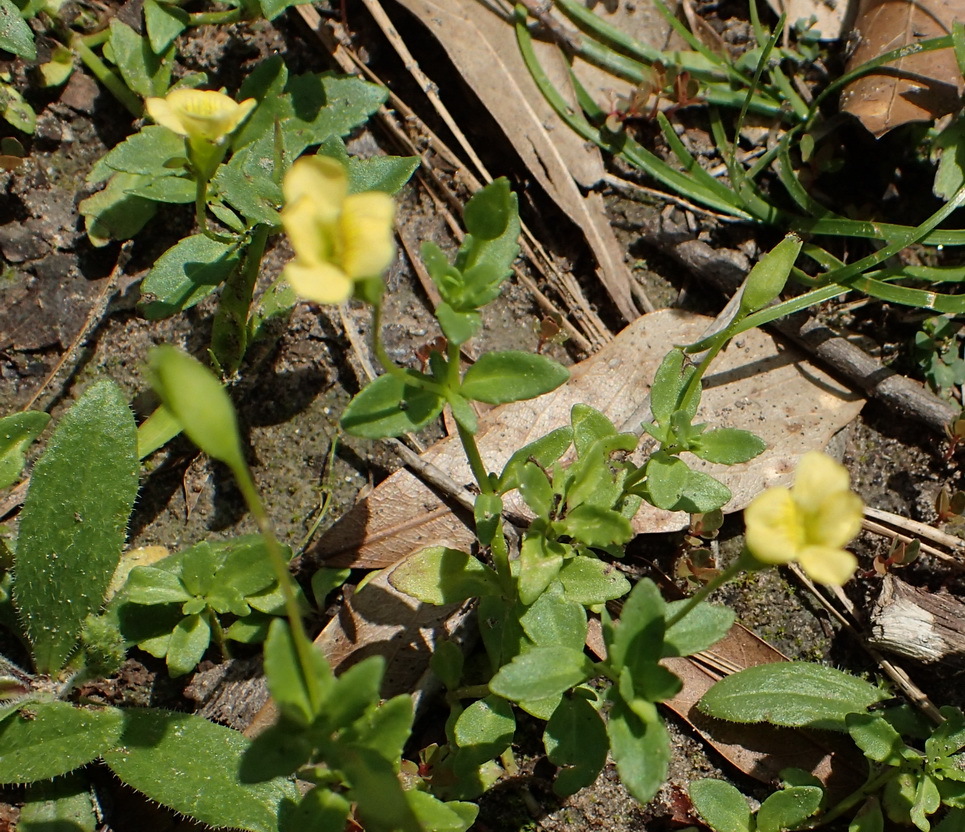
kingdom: Plantae
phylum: Tracheophyta
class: Magnoliopsida
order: Lamiales
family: Plantaginaceae
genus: Mecardonia
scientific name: Mecardonia procumbens
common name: Baby jump-up
